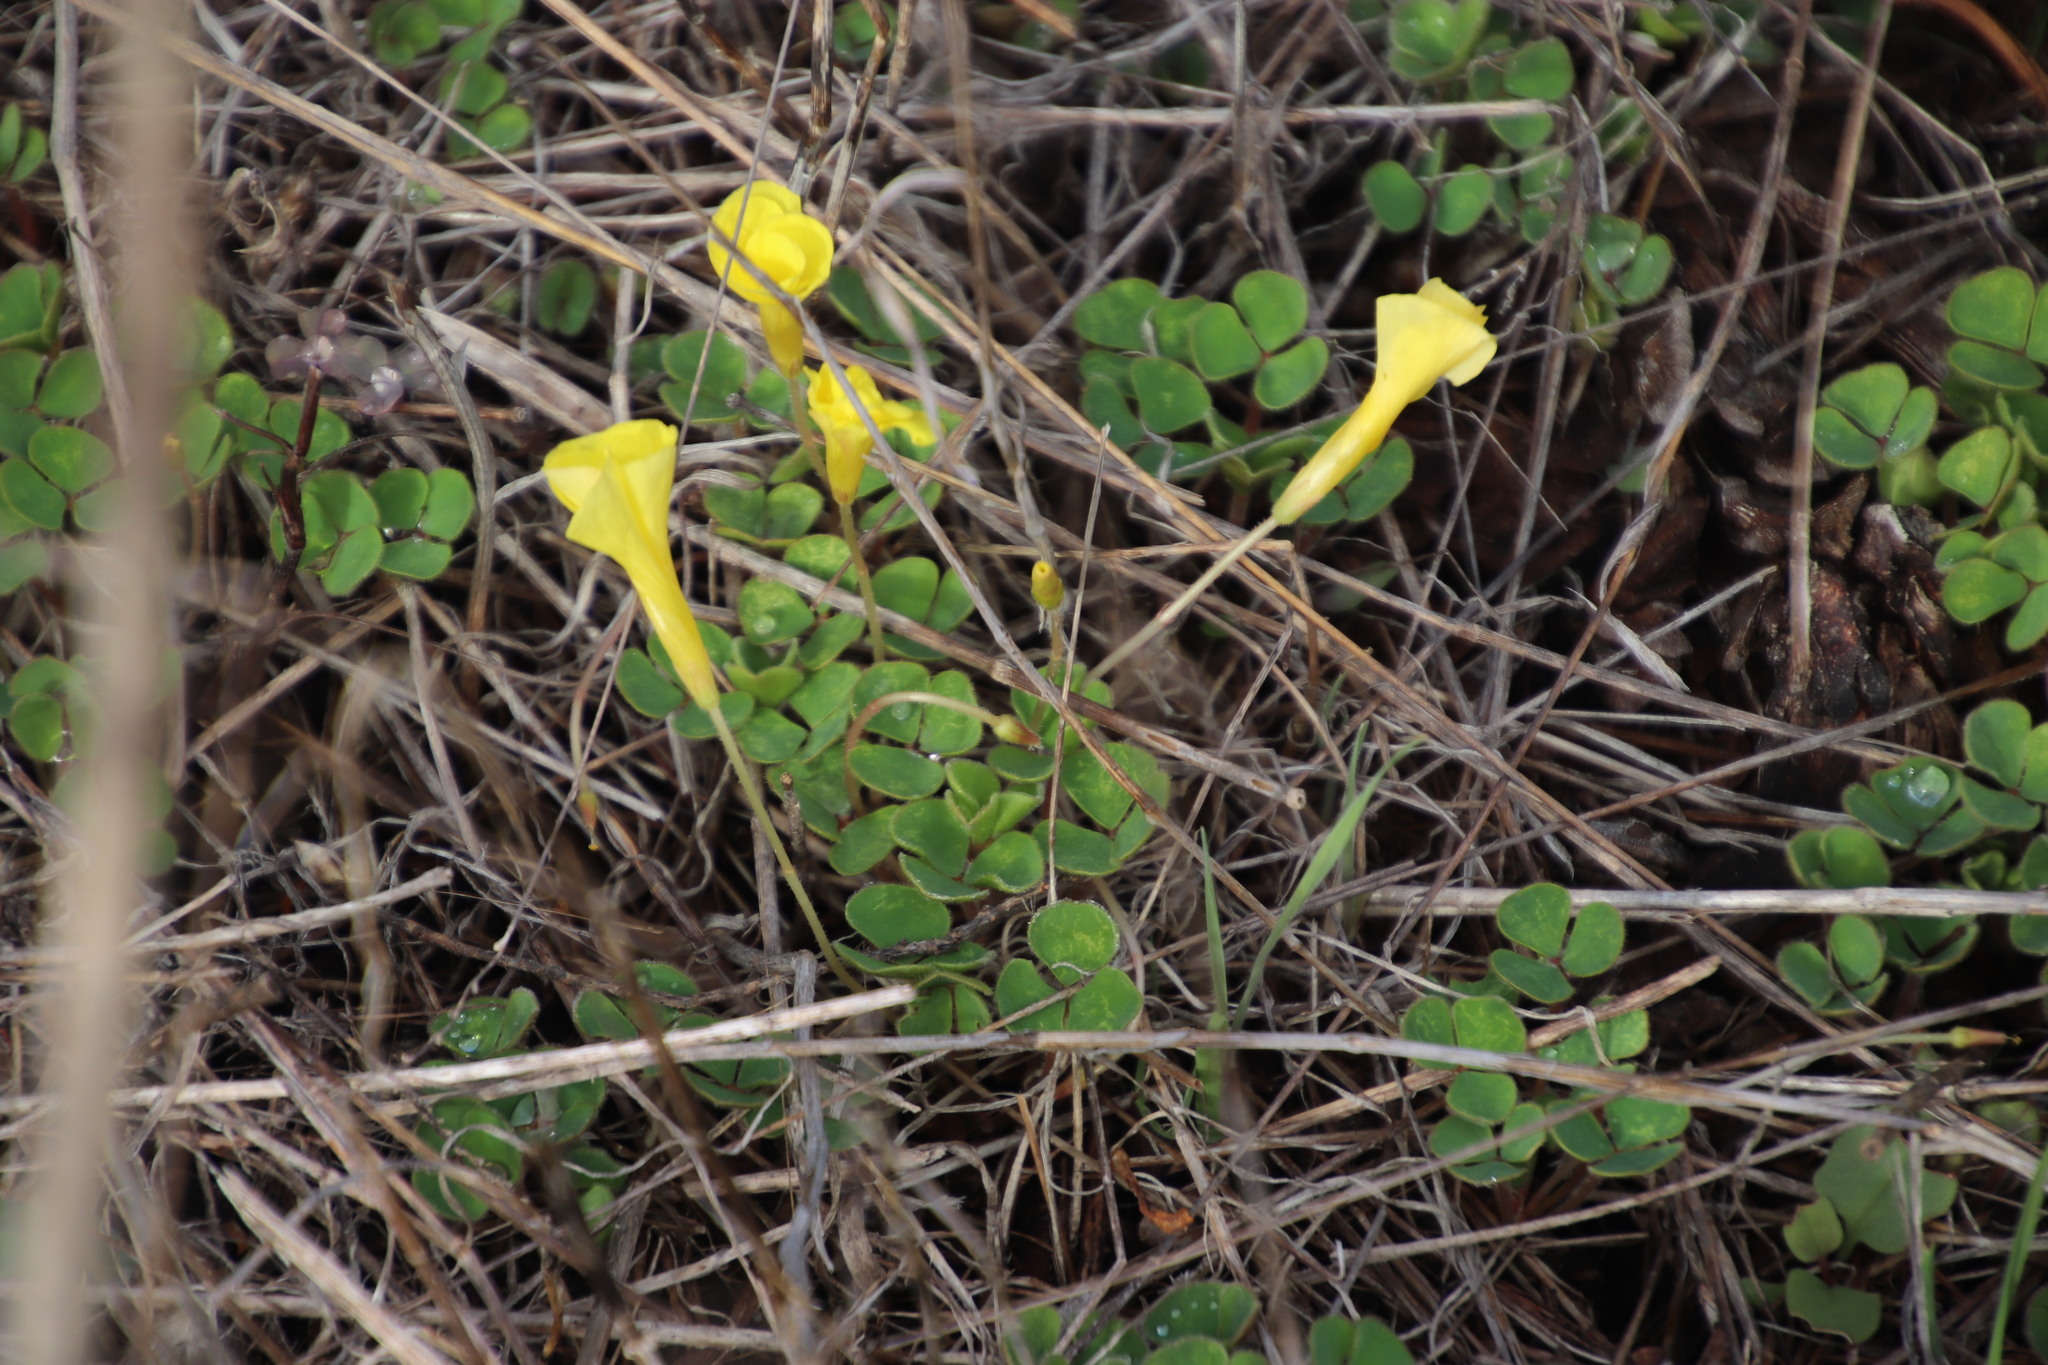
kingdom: Plantae
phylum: Tracheophyta
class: Magnoliopsida
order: Oxalidales
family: Oxalidaceae
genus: Oxalis
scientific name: Oxalis luteola
